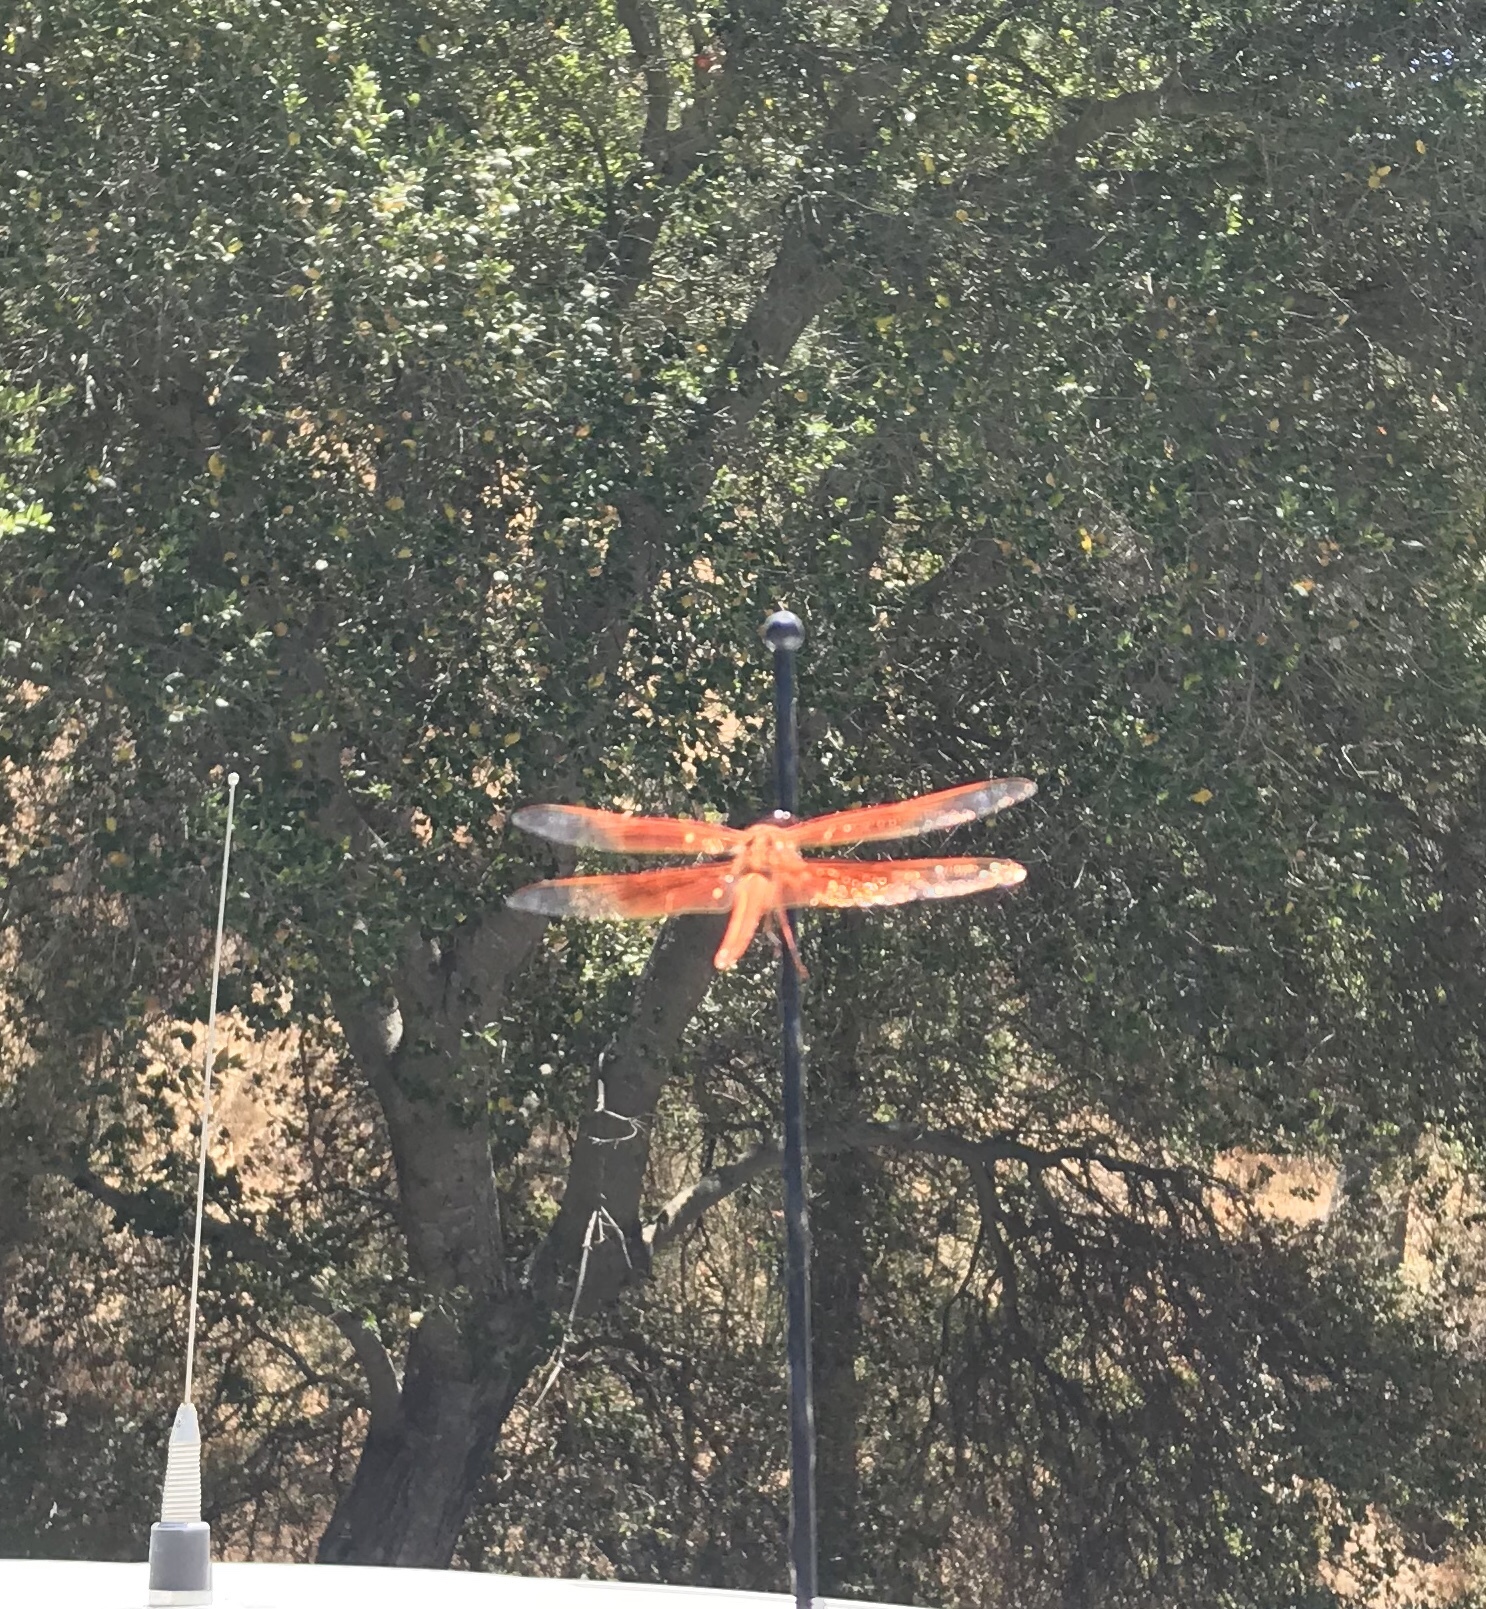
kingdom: Animalia
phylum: Arthropoda
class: Insecta
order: Odonata
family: Libellulidae
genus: Libellula
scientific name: Libellula saturata
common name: Flame skimmer
